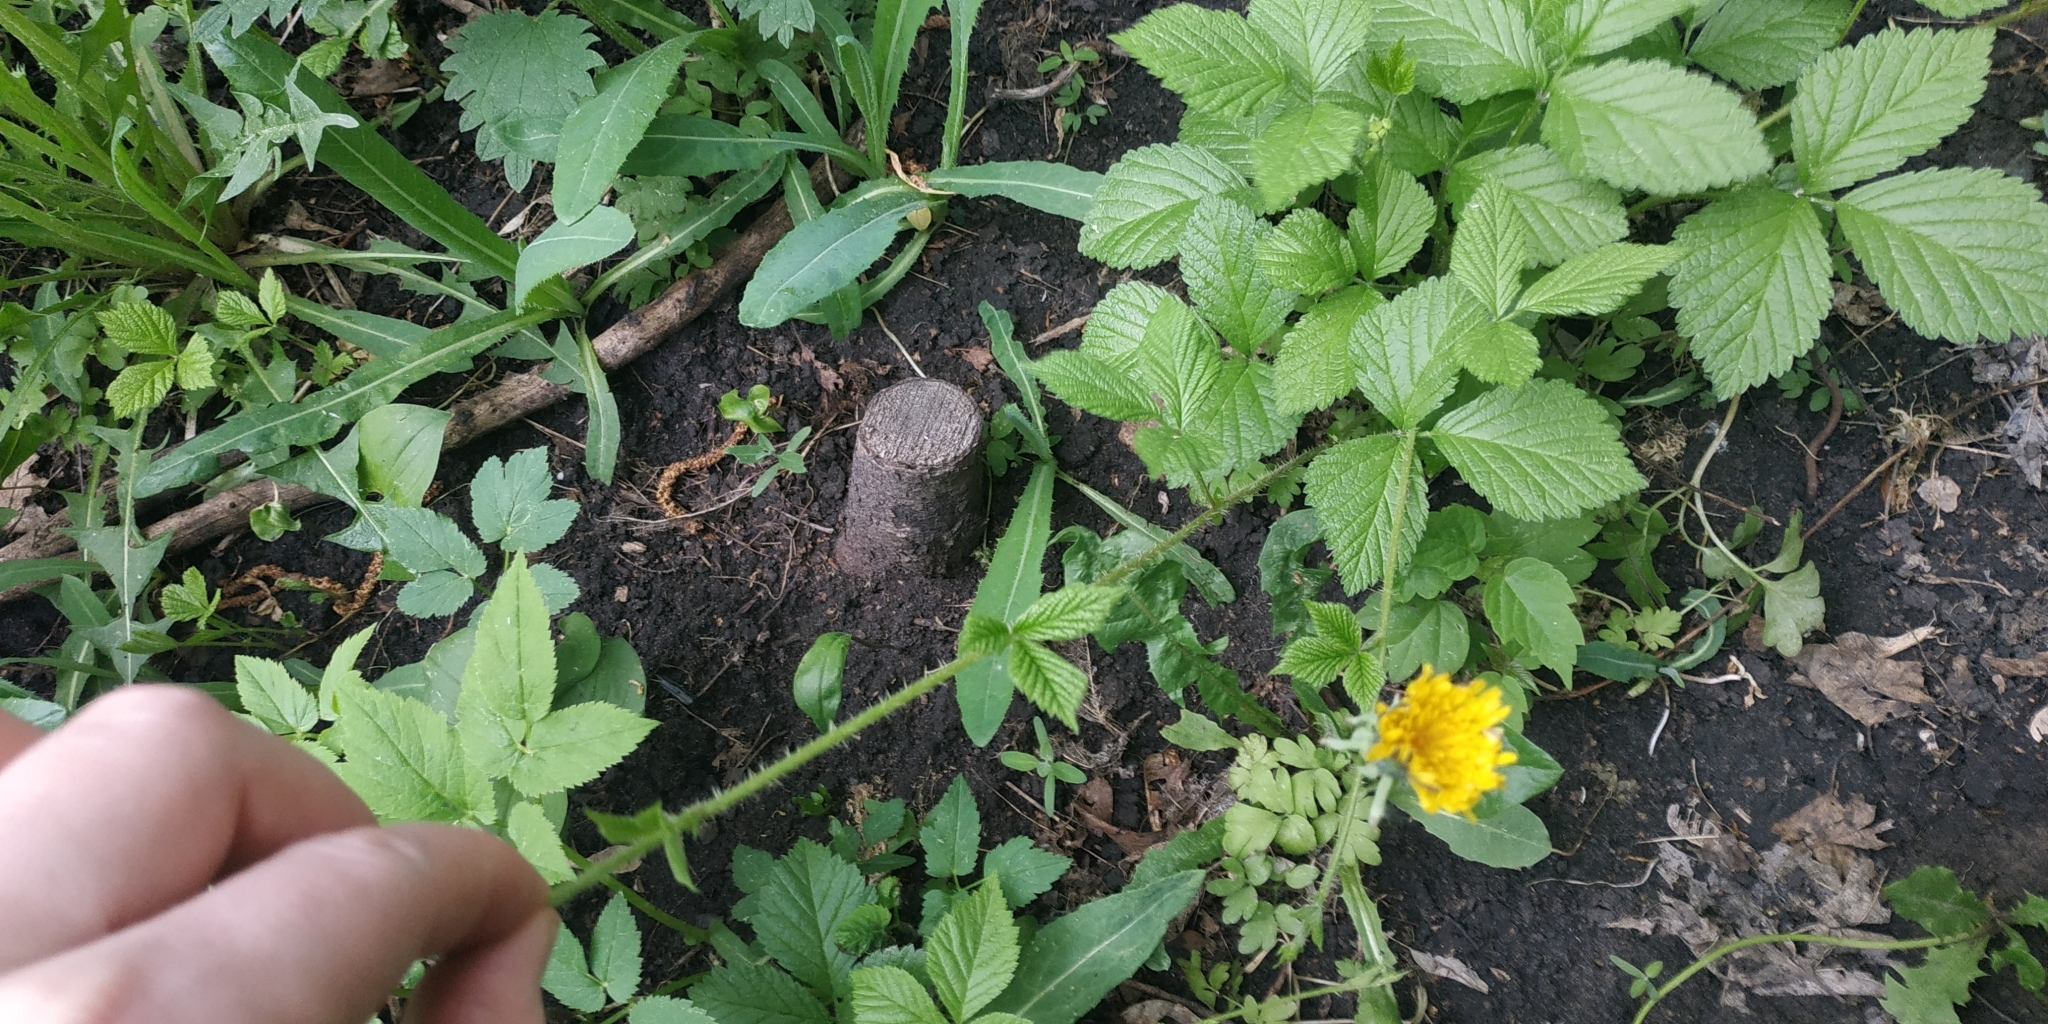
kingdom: Plantae
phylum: Tracheophyta
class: Magnoliopsida
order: Rosales
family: Rosaceae
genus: Rubus
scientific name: Rubus saxatilis
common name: Stone bramble
